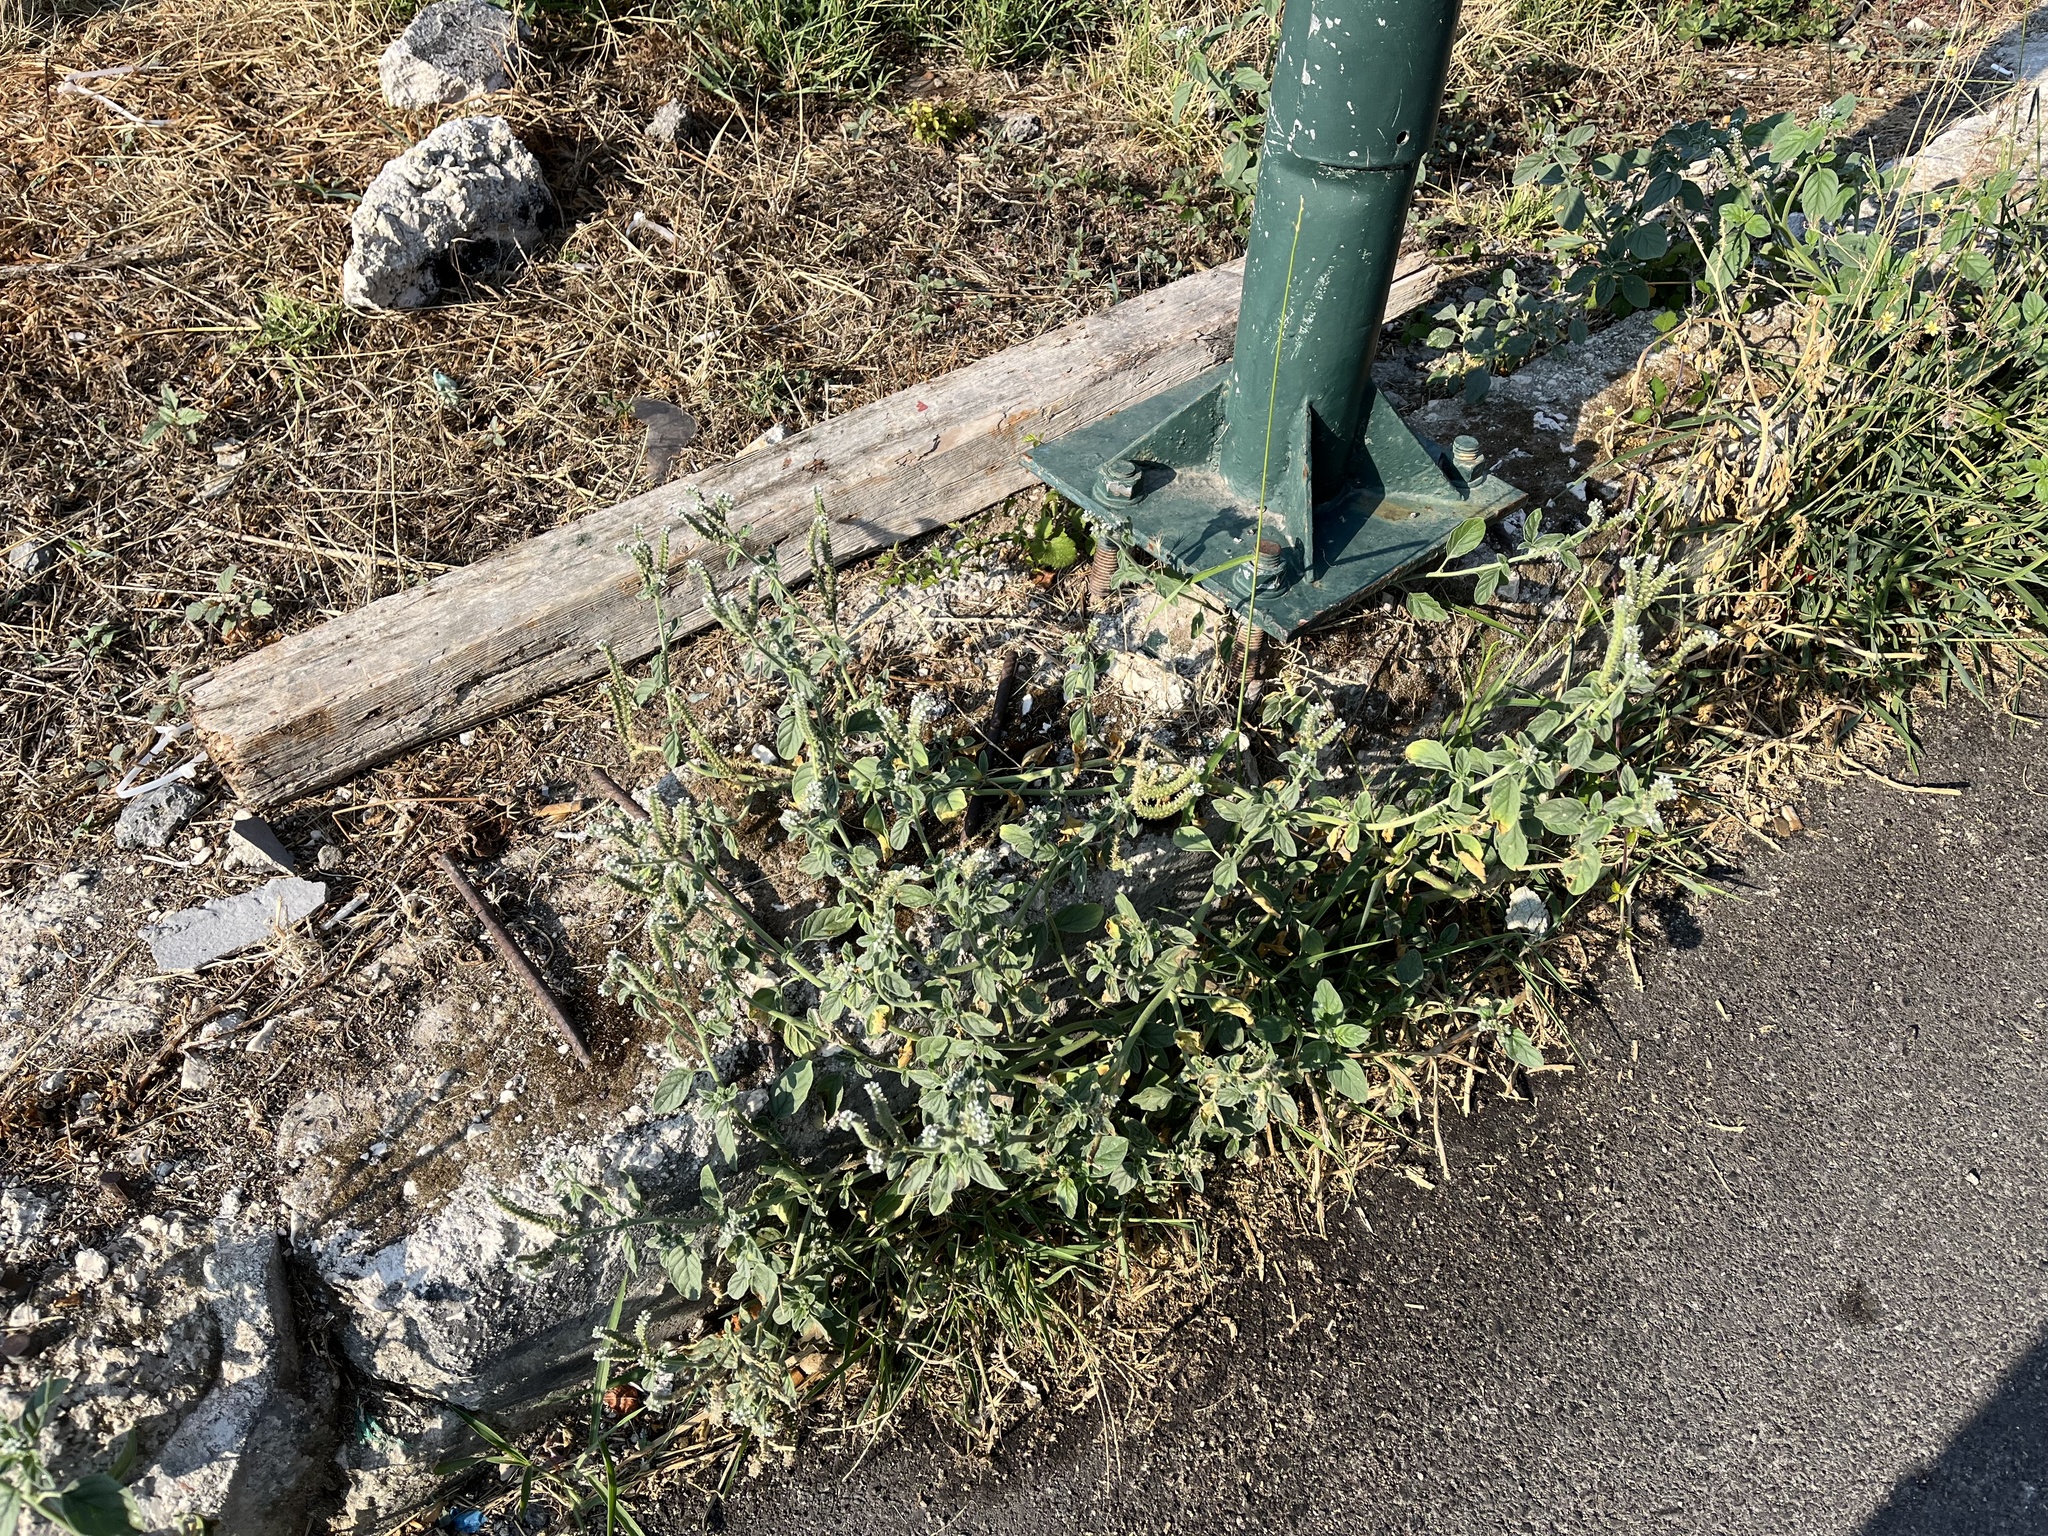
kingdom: Plantae
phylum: Tracheophyta
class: Magnoliopsida
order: Boraginales
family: Heliotropiaceae
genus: Heliotropium
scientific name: Heliotropium europaeum
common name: European heliotrope
